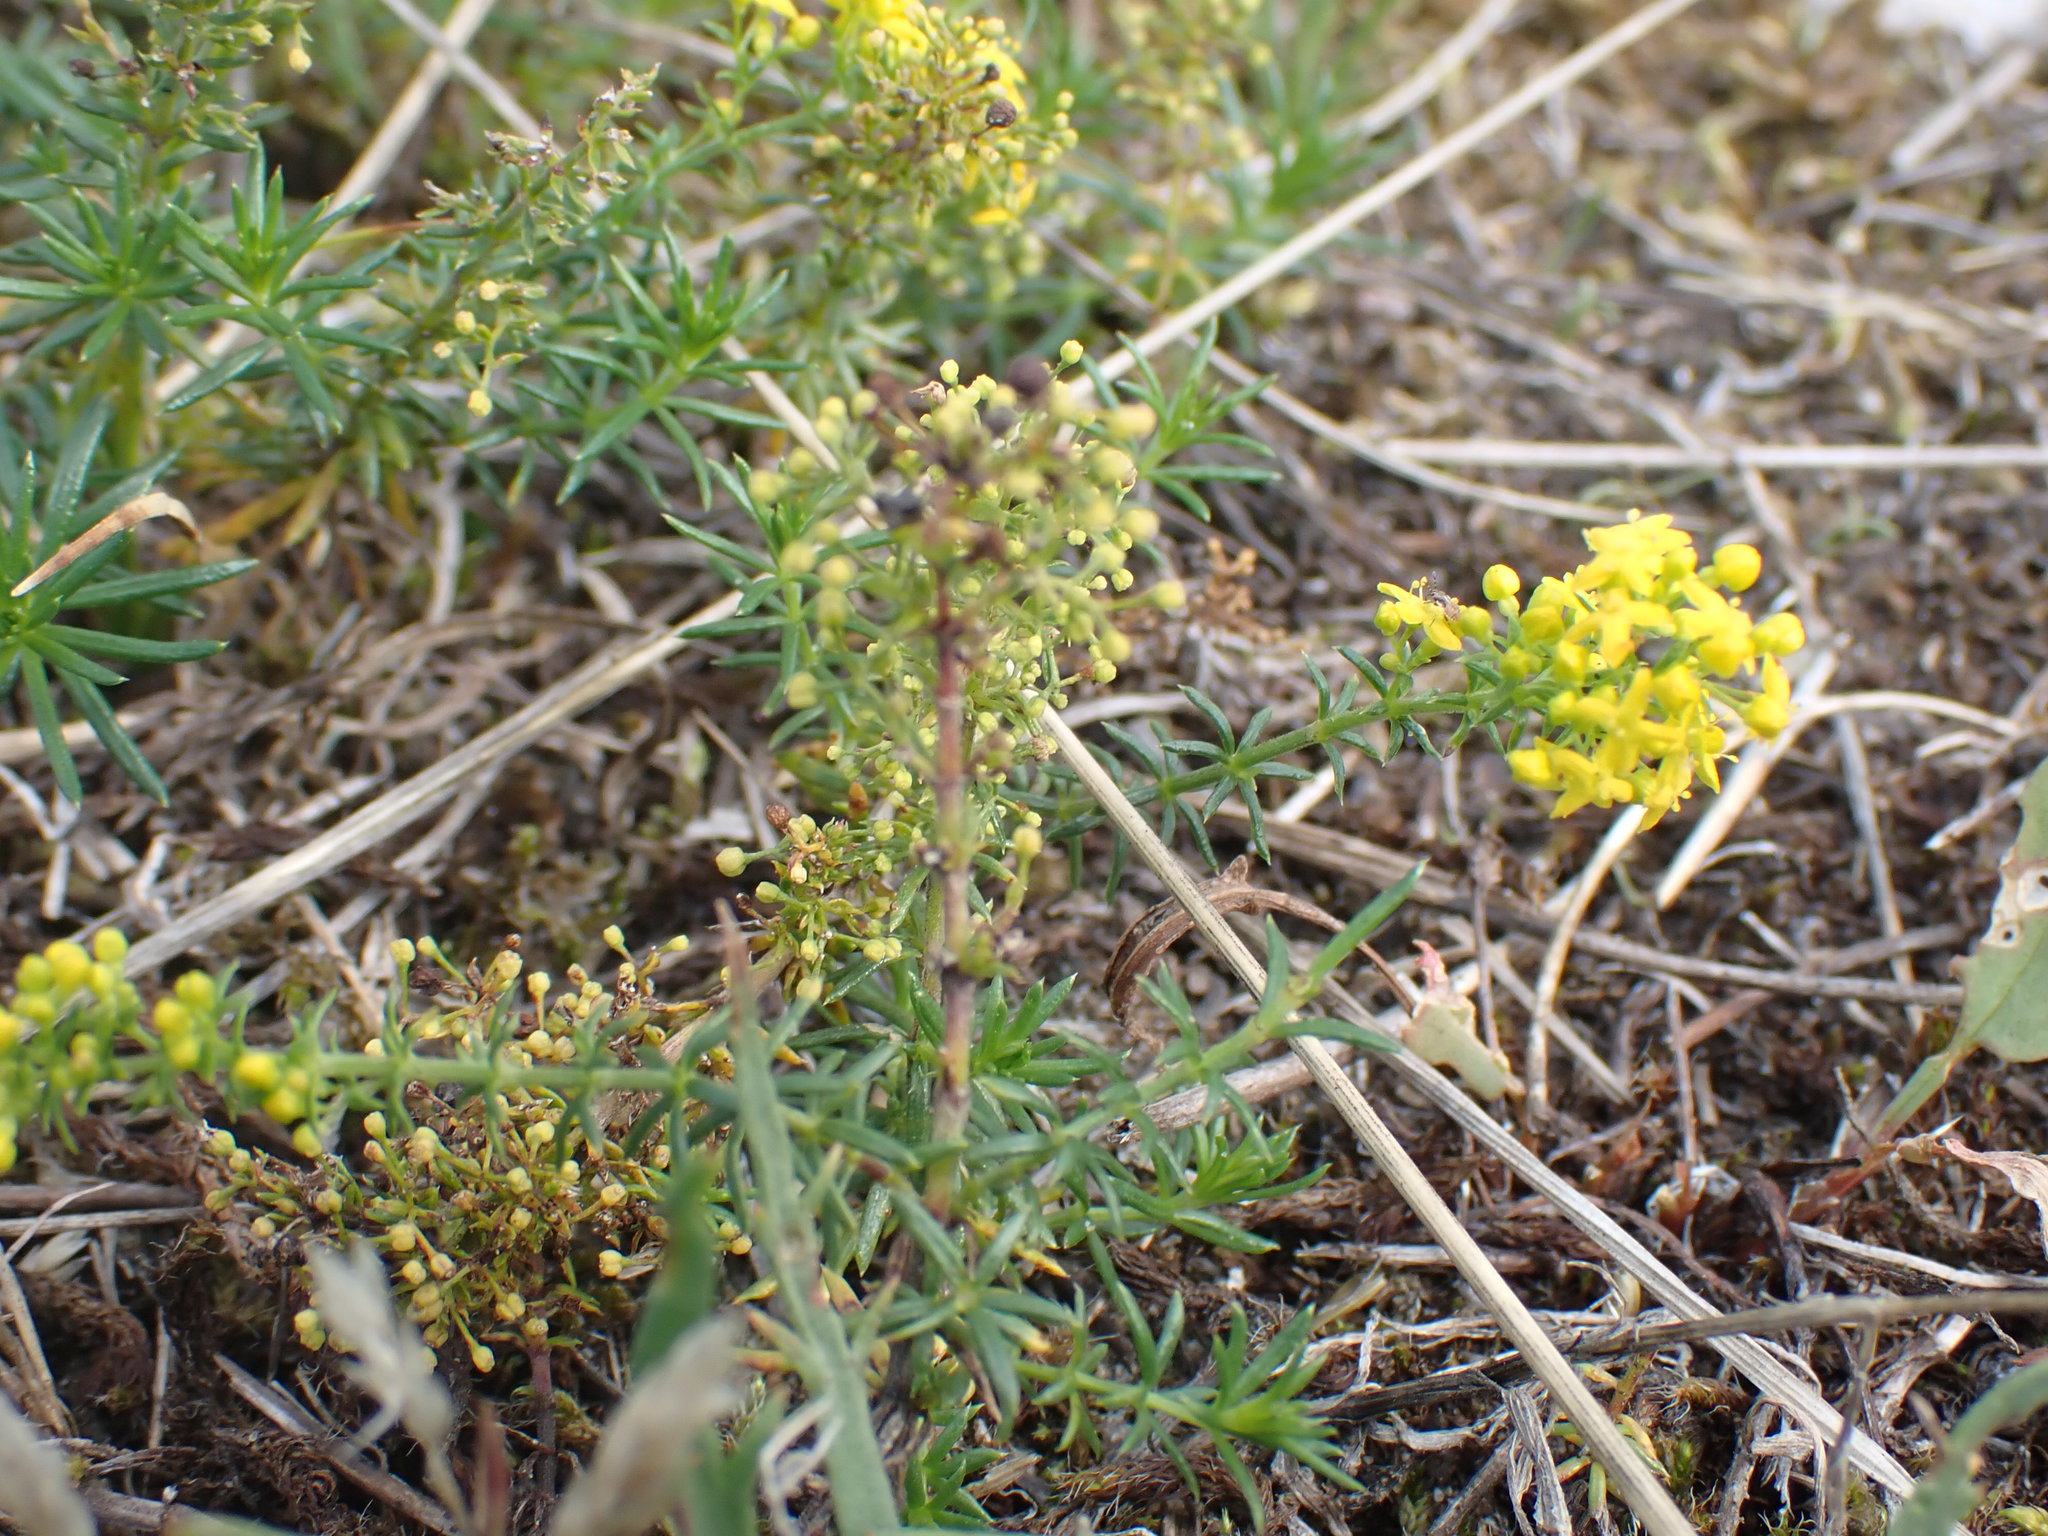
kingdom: Plantae
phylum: Tracheophyta
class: Magnoliopsida
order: Gentianales
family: Rubiaceae
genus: Galium
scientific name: Galium verum
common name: Lady's bedstraw
